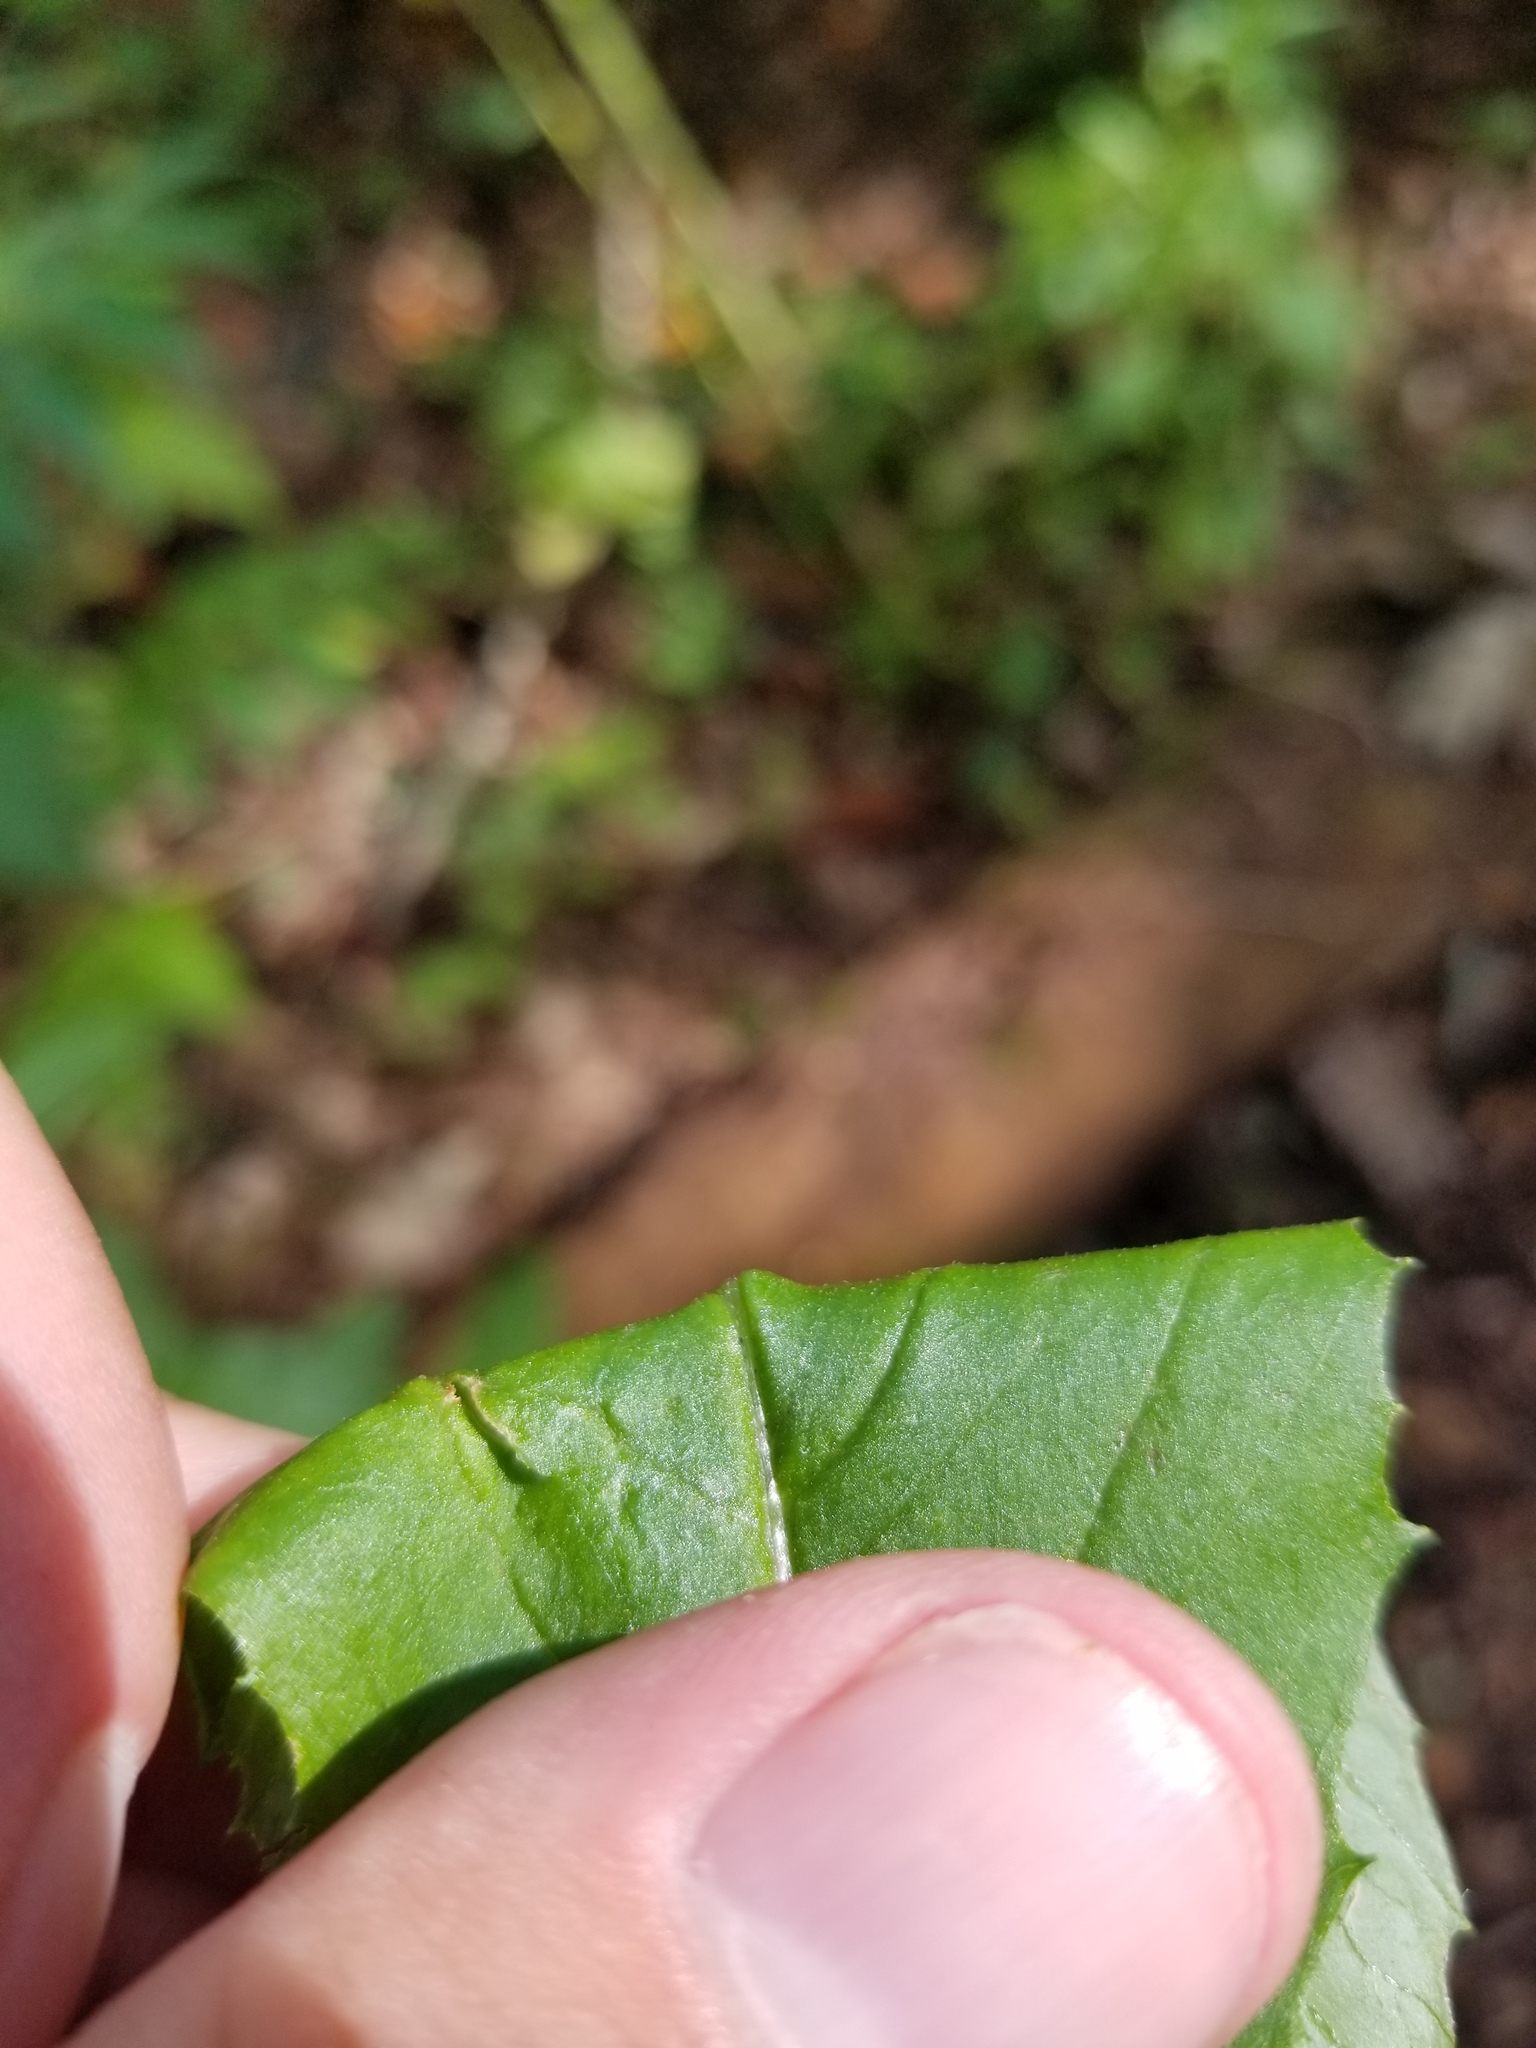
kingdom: Plantae
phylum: Tracheophyta
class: Magnoliopsida
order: Asterales
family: Asteraceae
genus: Erechtites
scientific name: Erechtites hieraciifolius
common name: American burnweed
